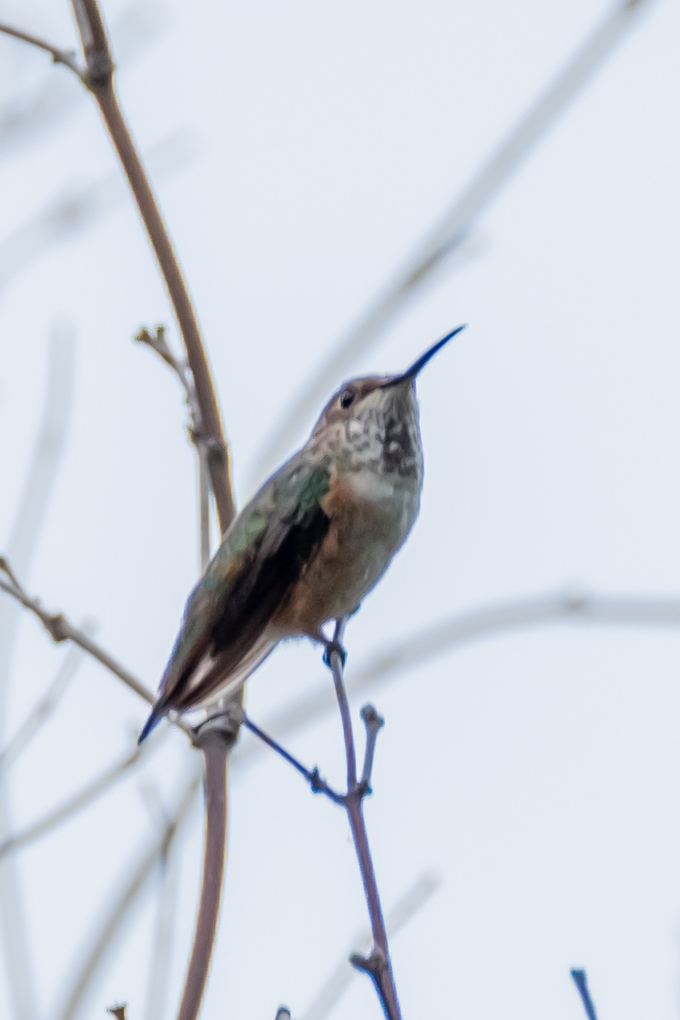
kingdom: Animalia
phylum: Chordata
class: Aves
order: Apodiformes
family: Trochilidae
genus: Selasphorus
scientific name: Selasphorus sasin
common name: Allen's hummingbird
